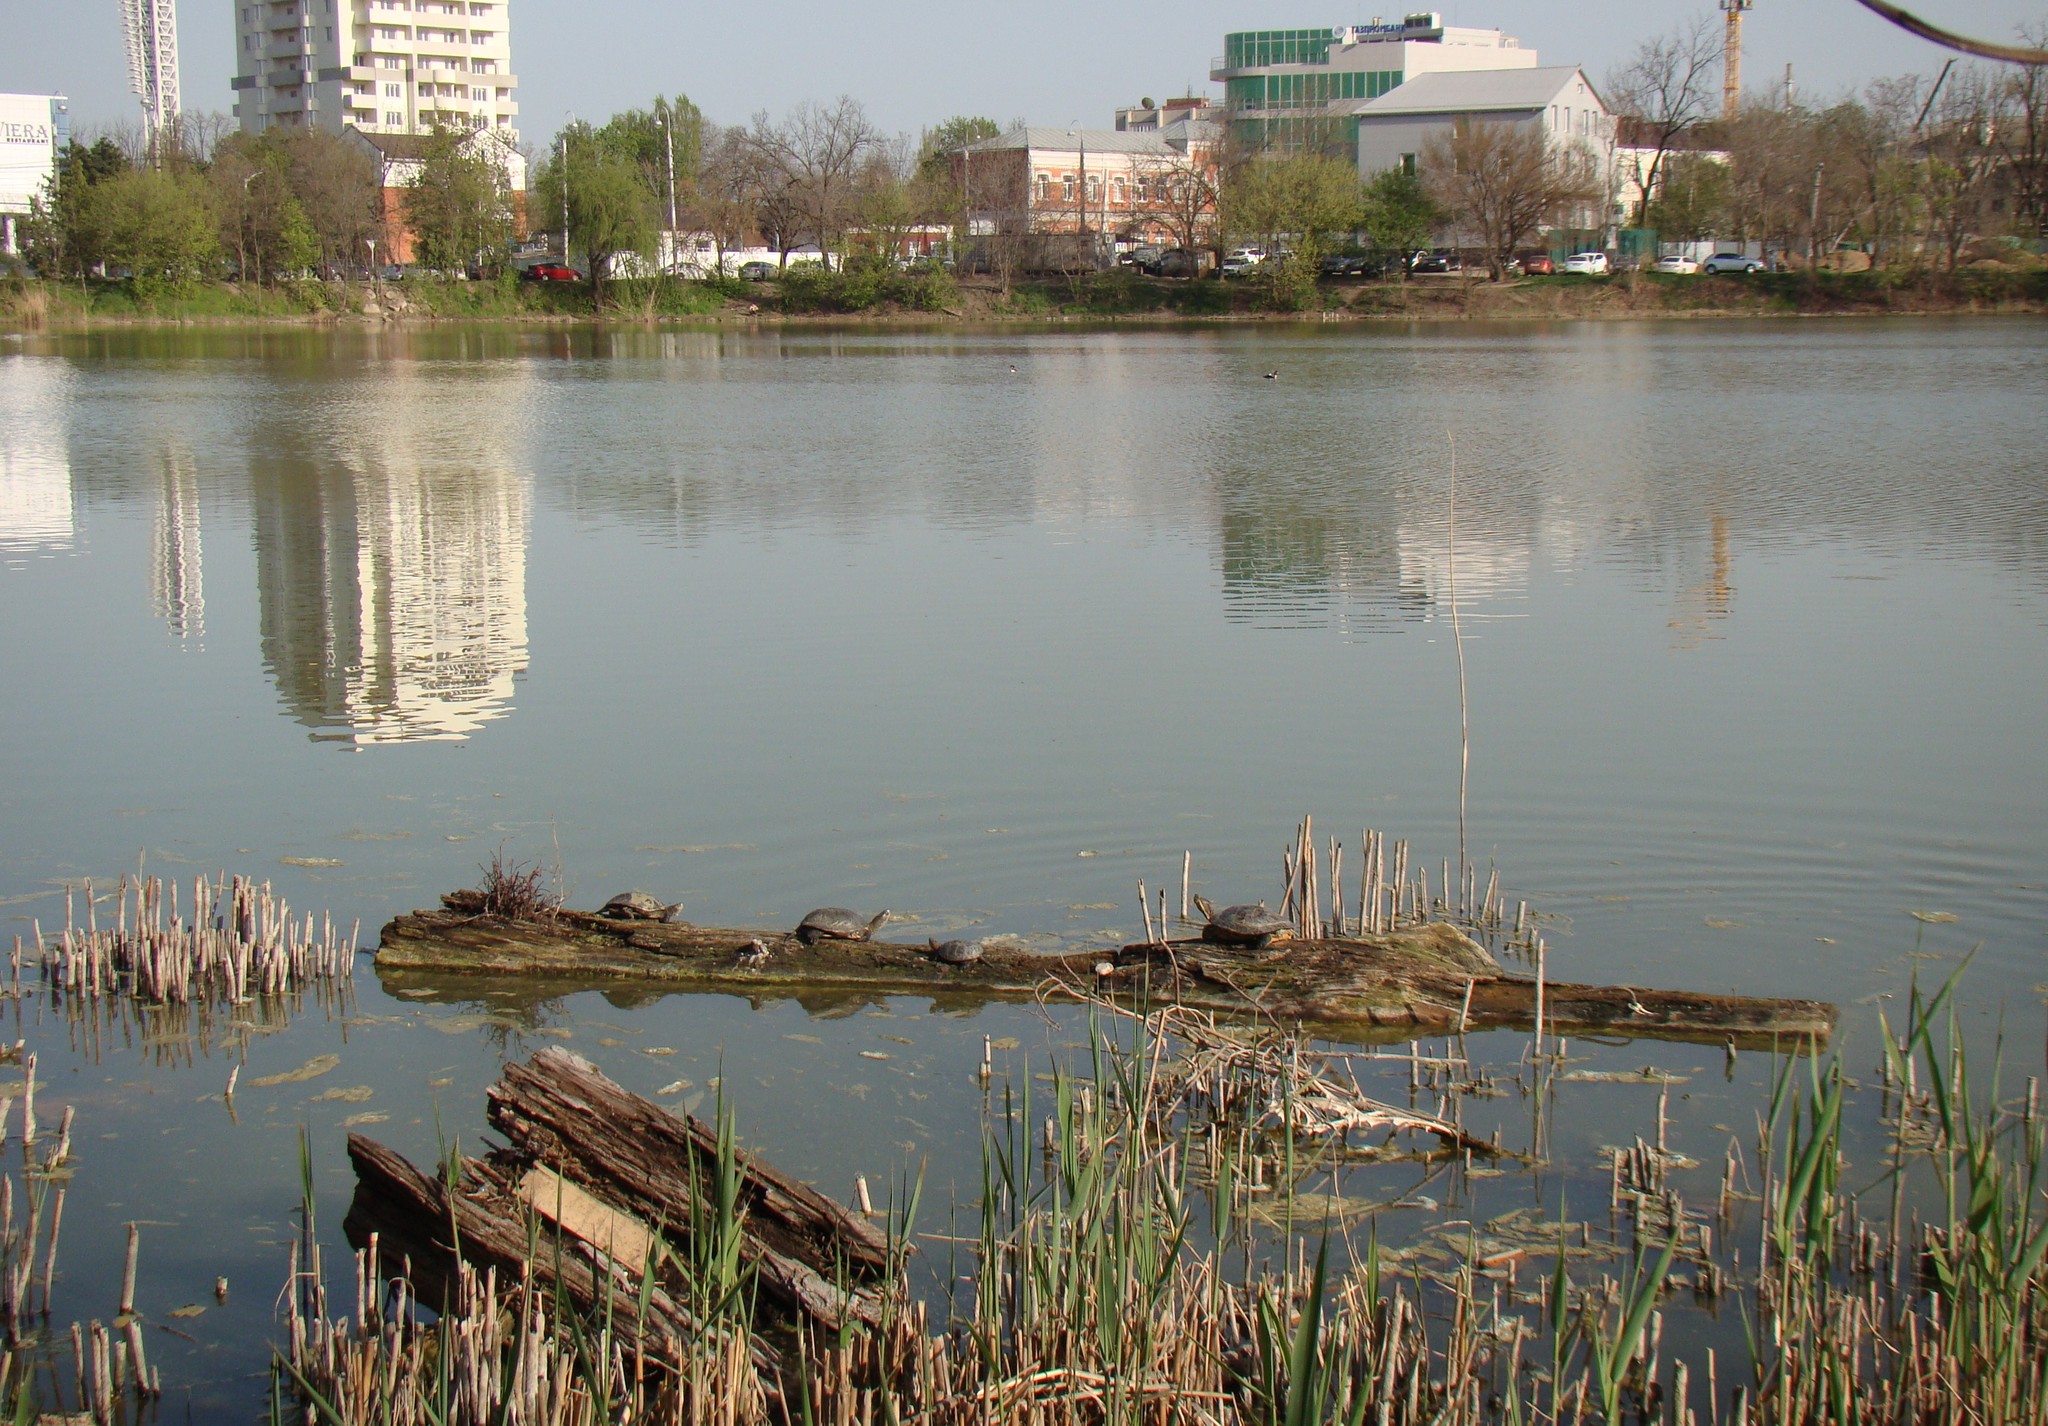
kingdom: Animalia
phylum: Chordata
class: Testudines
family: Emydidae
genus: Trachemys
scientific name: Trachemys scripta
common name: Slider
